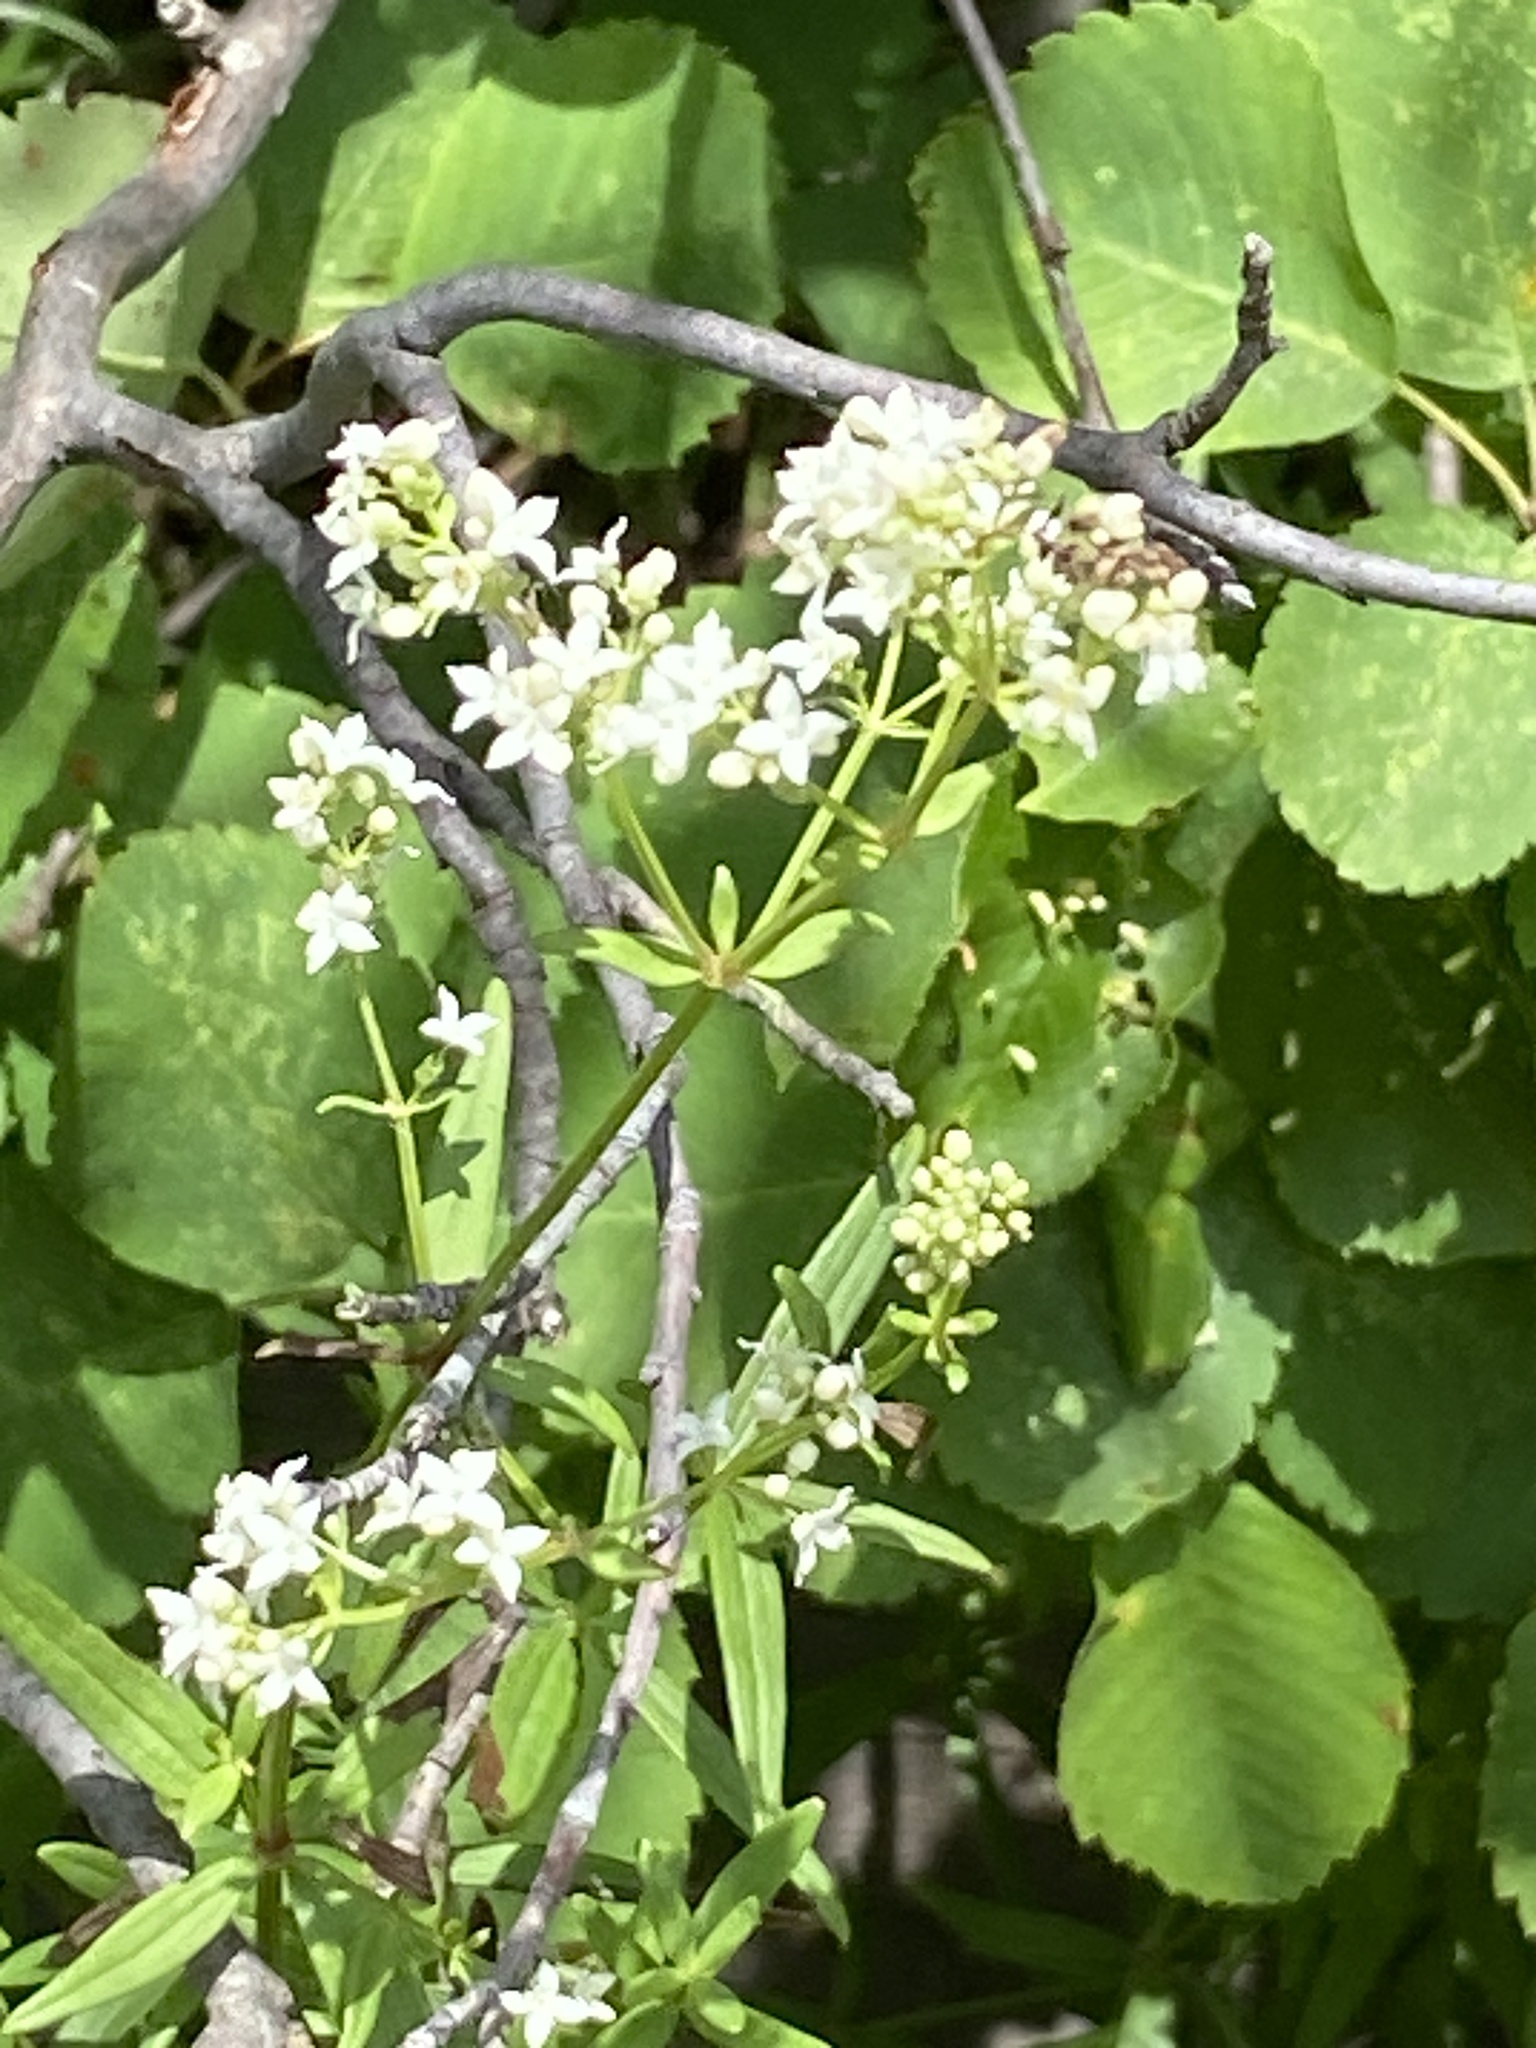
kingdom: Plantae
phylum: Tracheophyta
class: Magnoliopsida
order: Gentianales
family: Rubiaceae
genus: Galium
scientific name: Galium boreale
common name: Northern bedstraw
